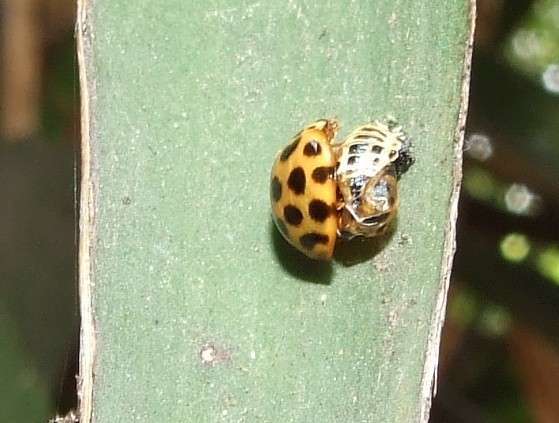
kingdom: Animalia
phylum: Arthropoda
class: Insecta
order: Coleoptera
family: Coccinellidae
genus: Harmonia
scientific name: Harmonia conformis
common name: Common spotted ladybird beetle
